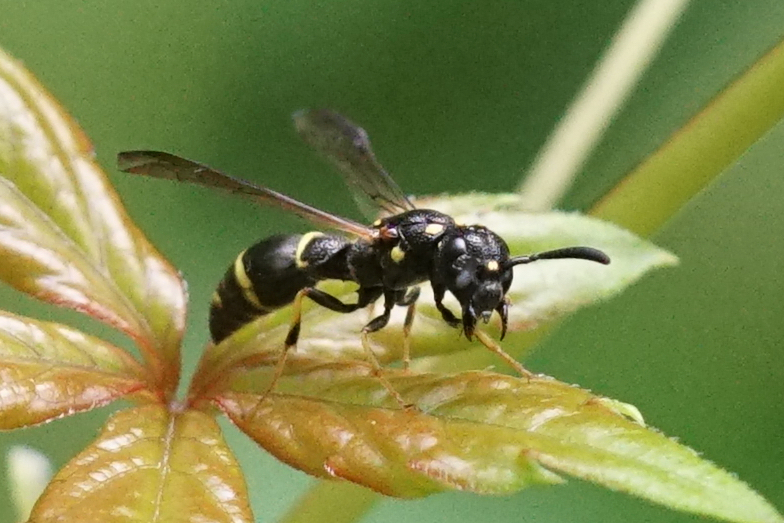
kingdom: Animalia
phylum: Arthropoda
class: Insecta
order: Hymenoptera
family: Eumenidae
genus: Symmorphus
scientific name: Symmorphus
